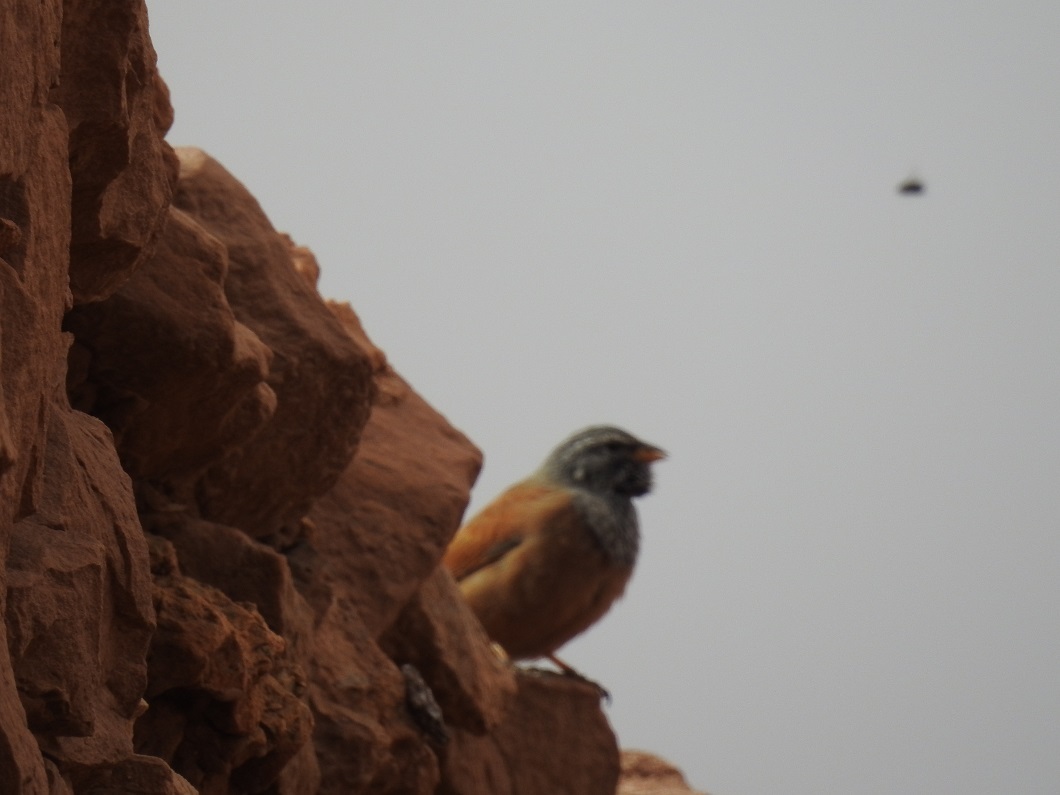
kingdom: Animalia
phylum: Chordata
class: Aves
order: Passeriformes
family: Emberizidae
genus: Emberiza
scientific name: Emberiza sahari
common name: House bunting
